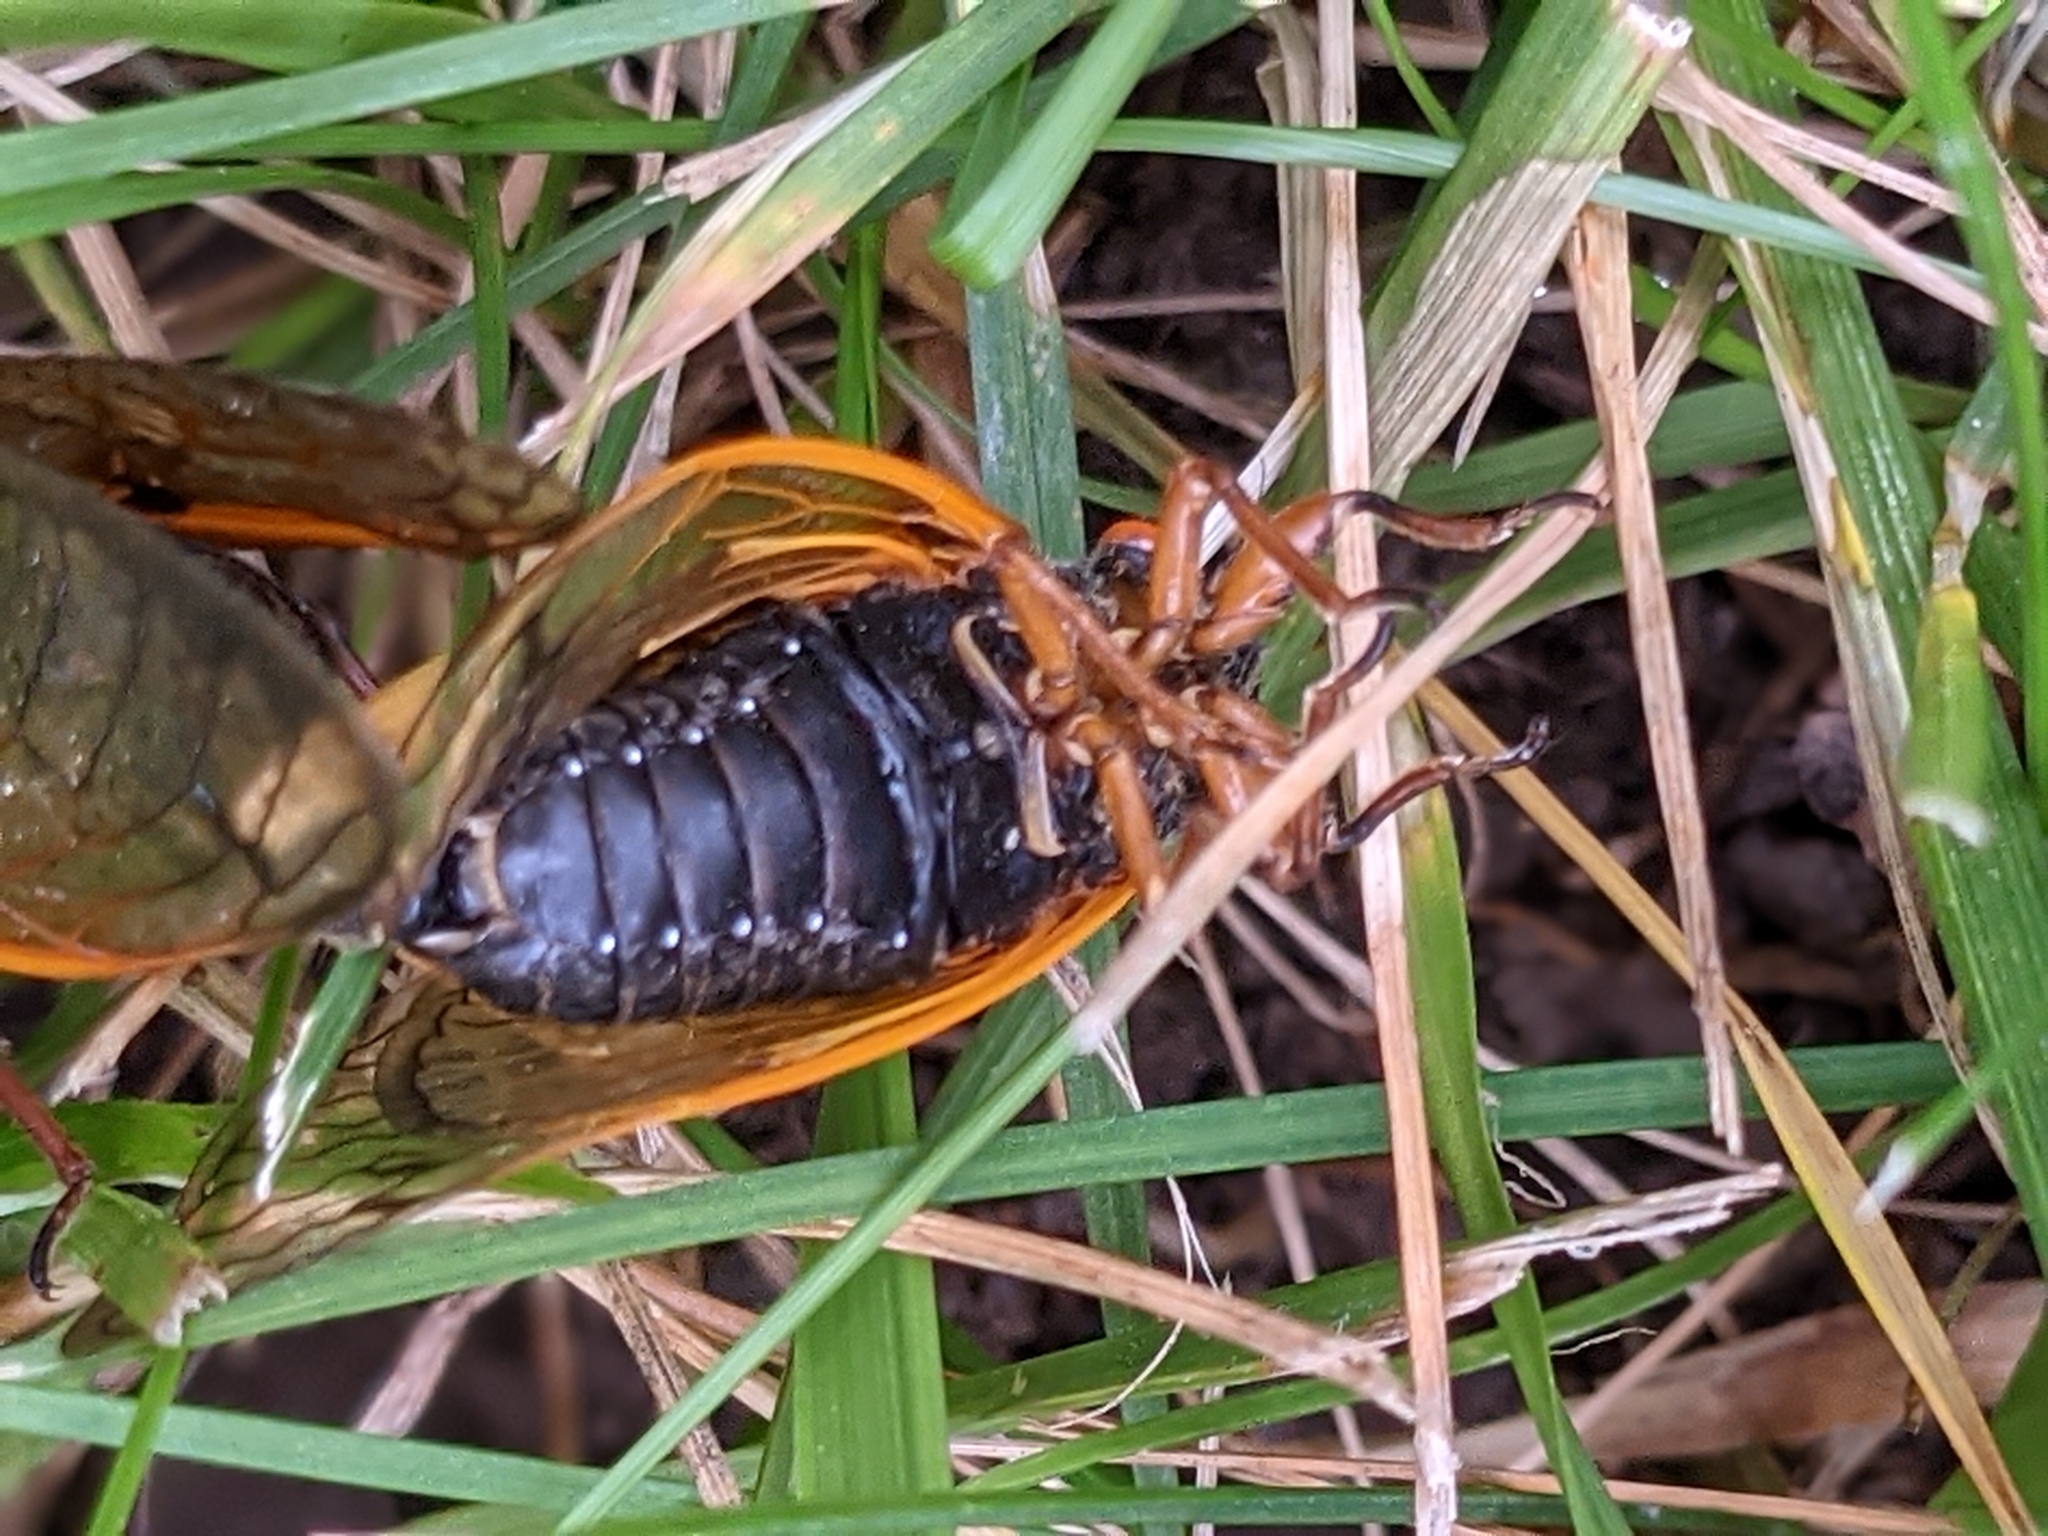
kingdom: Animalia
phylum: Arthropoda
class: Insecta
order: Hemiptera
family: Cicadidae
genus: Magicicada
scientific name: Magicicada cassini
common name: Cassin's 17-year cicada
